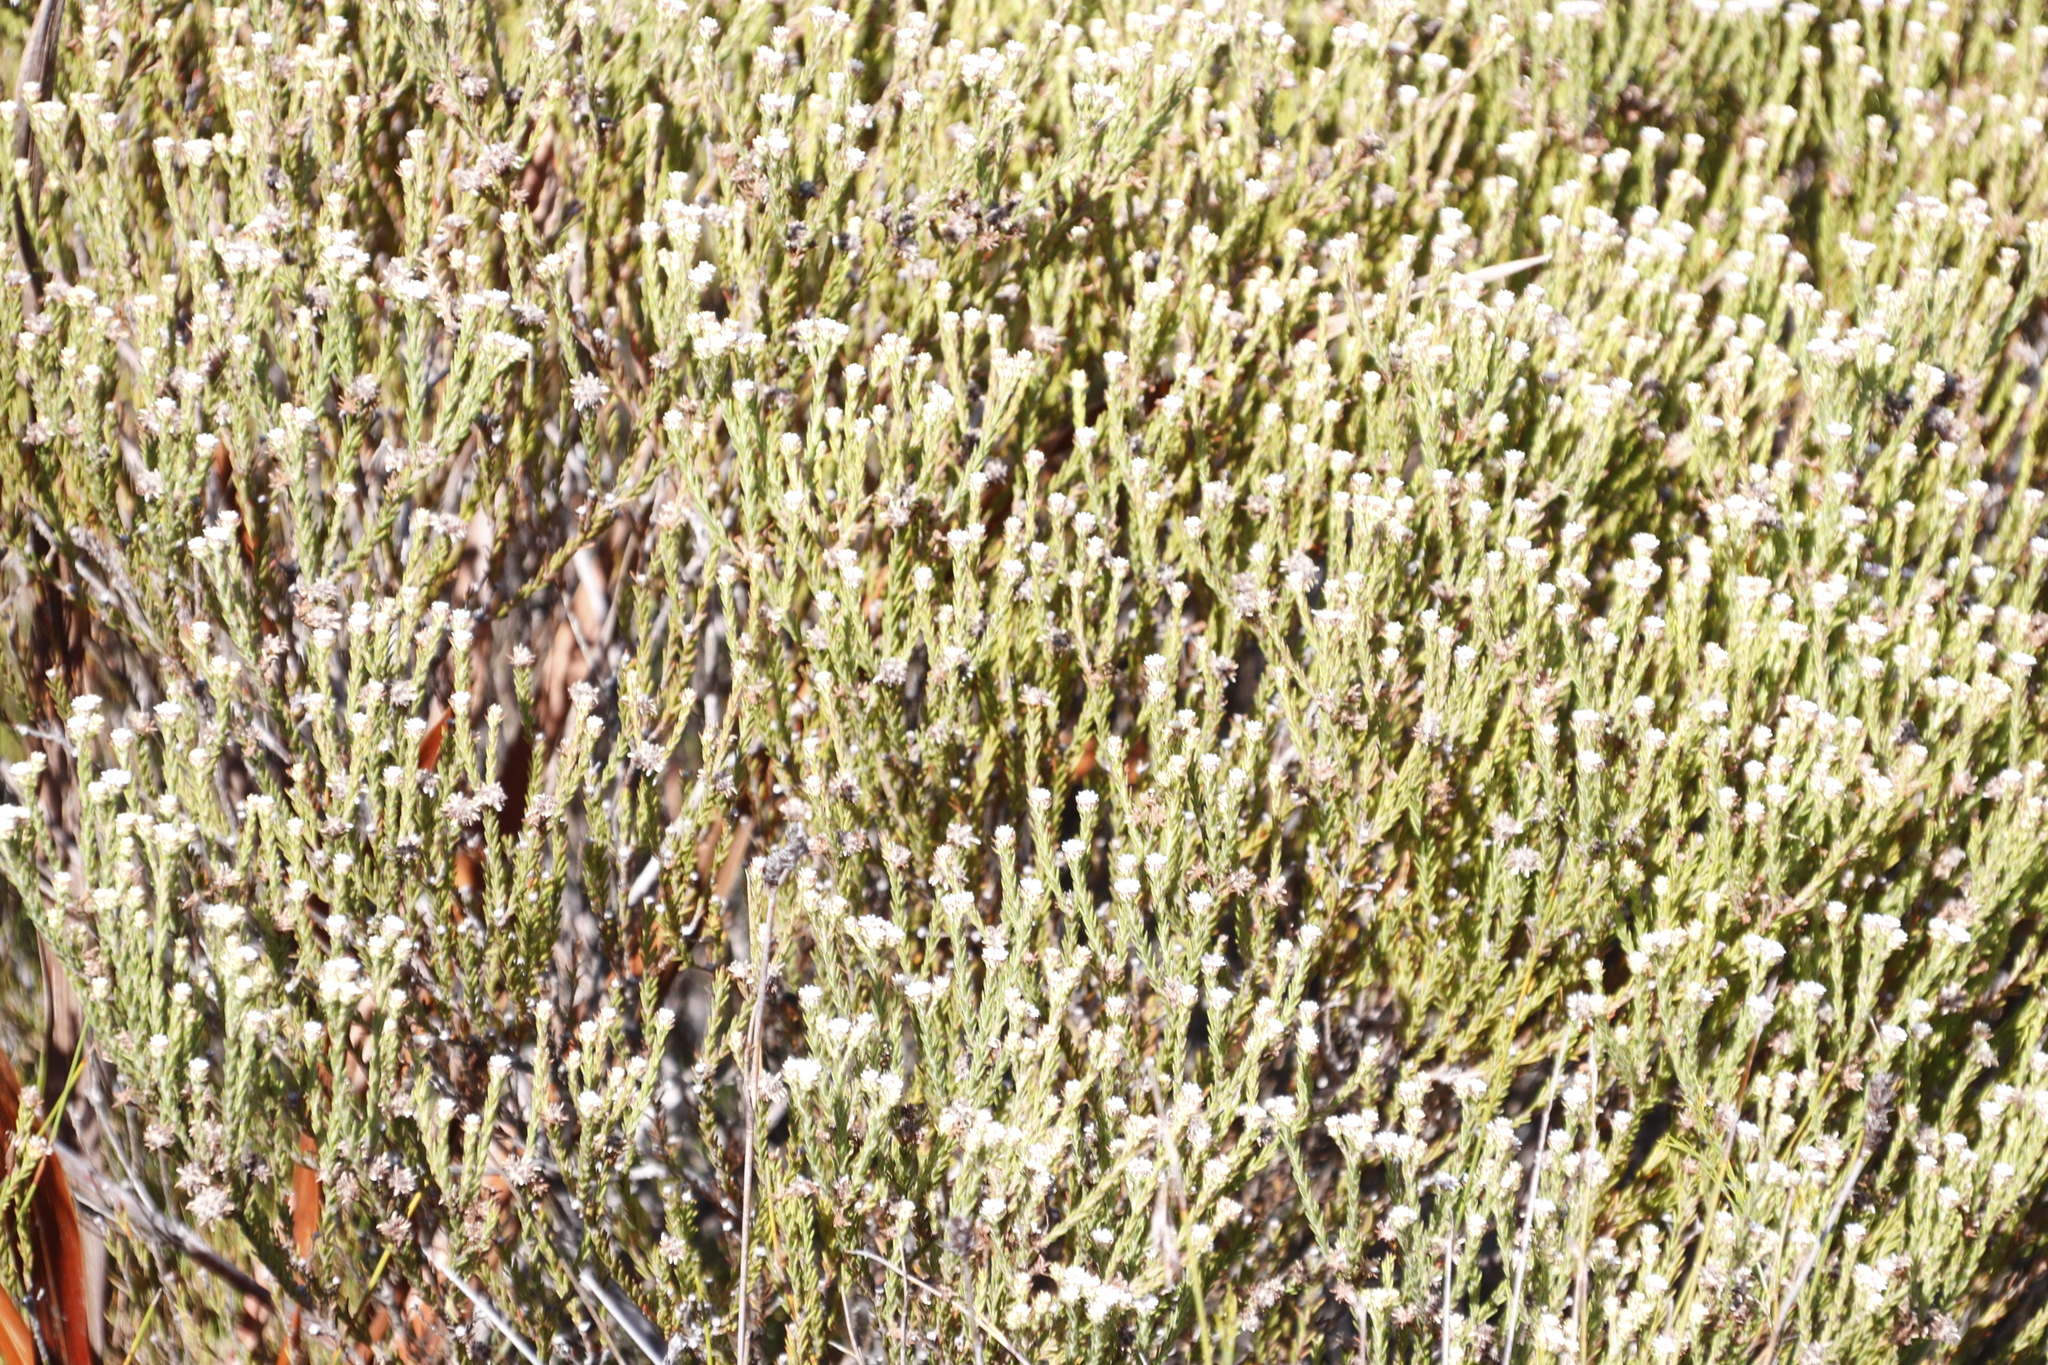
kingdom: Plantae
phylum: Tracheophyta
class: Magnoliopsida
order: Bruniales
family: Bruniaceae
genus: Staavia
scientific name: Staavia radiata
